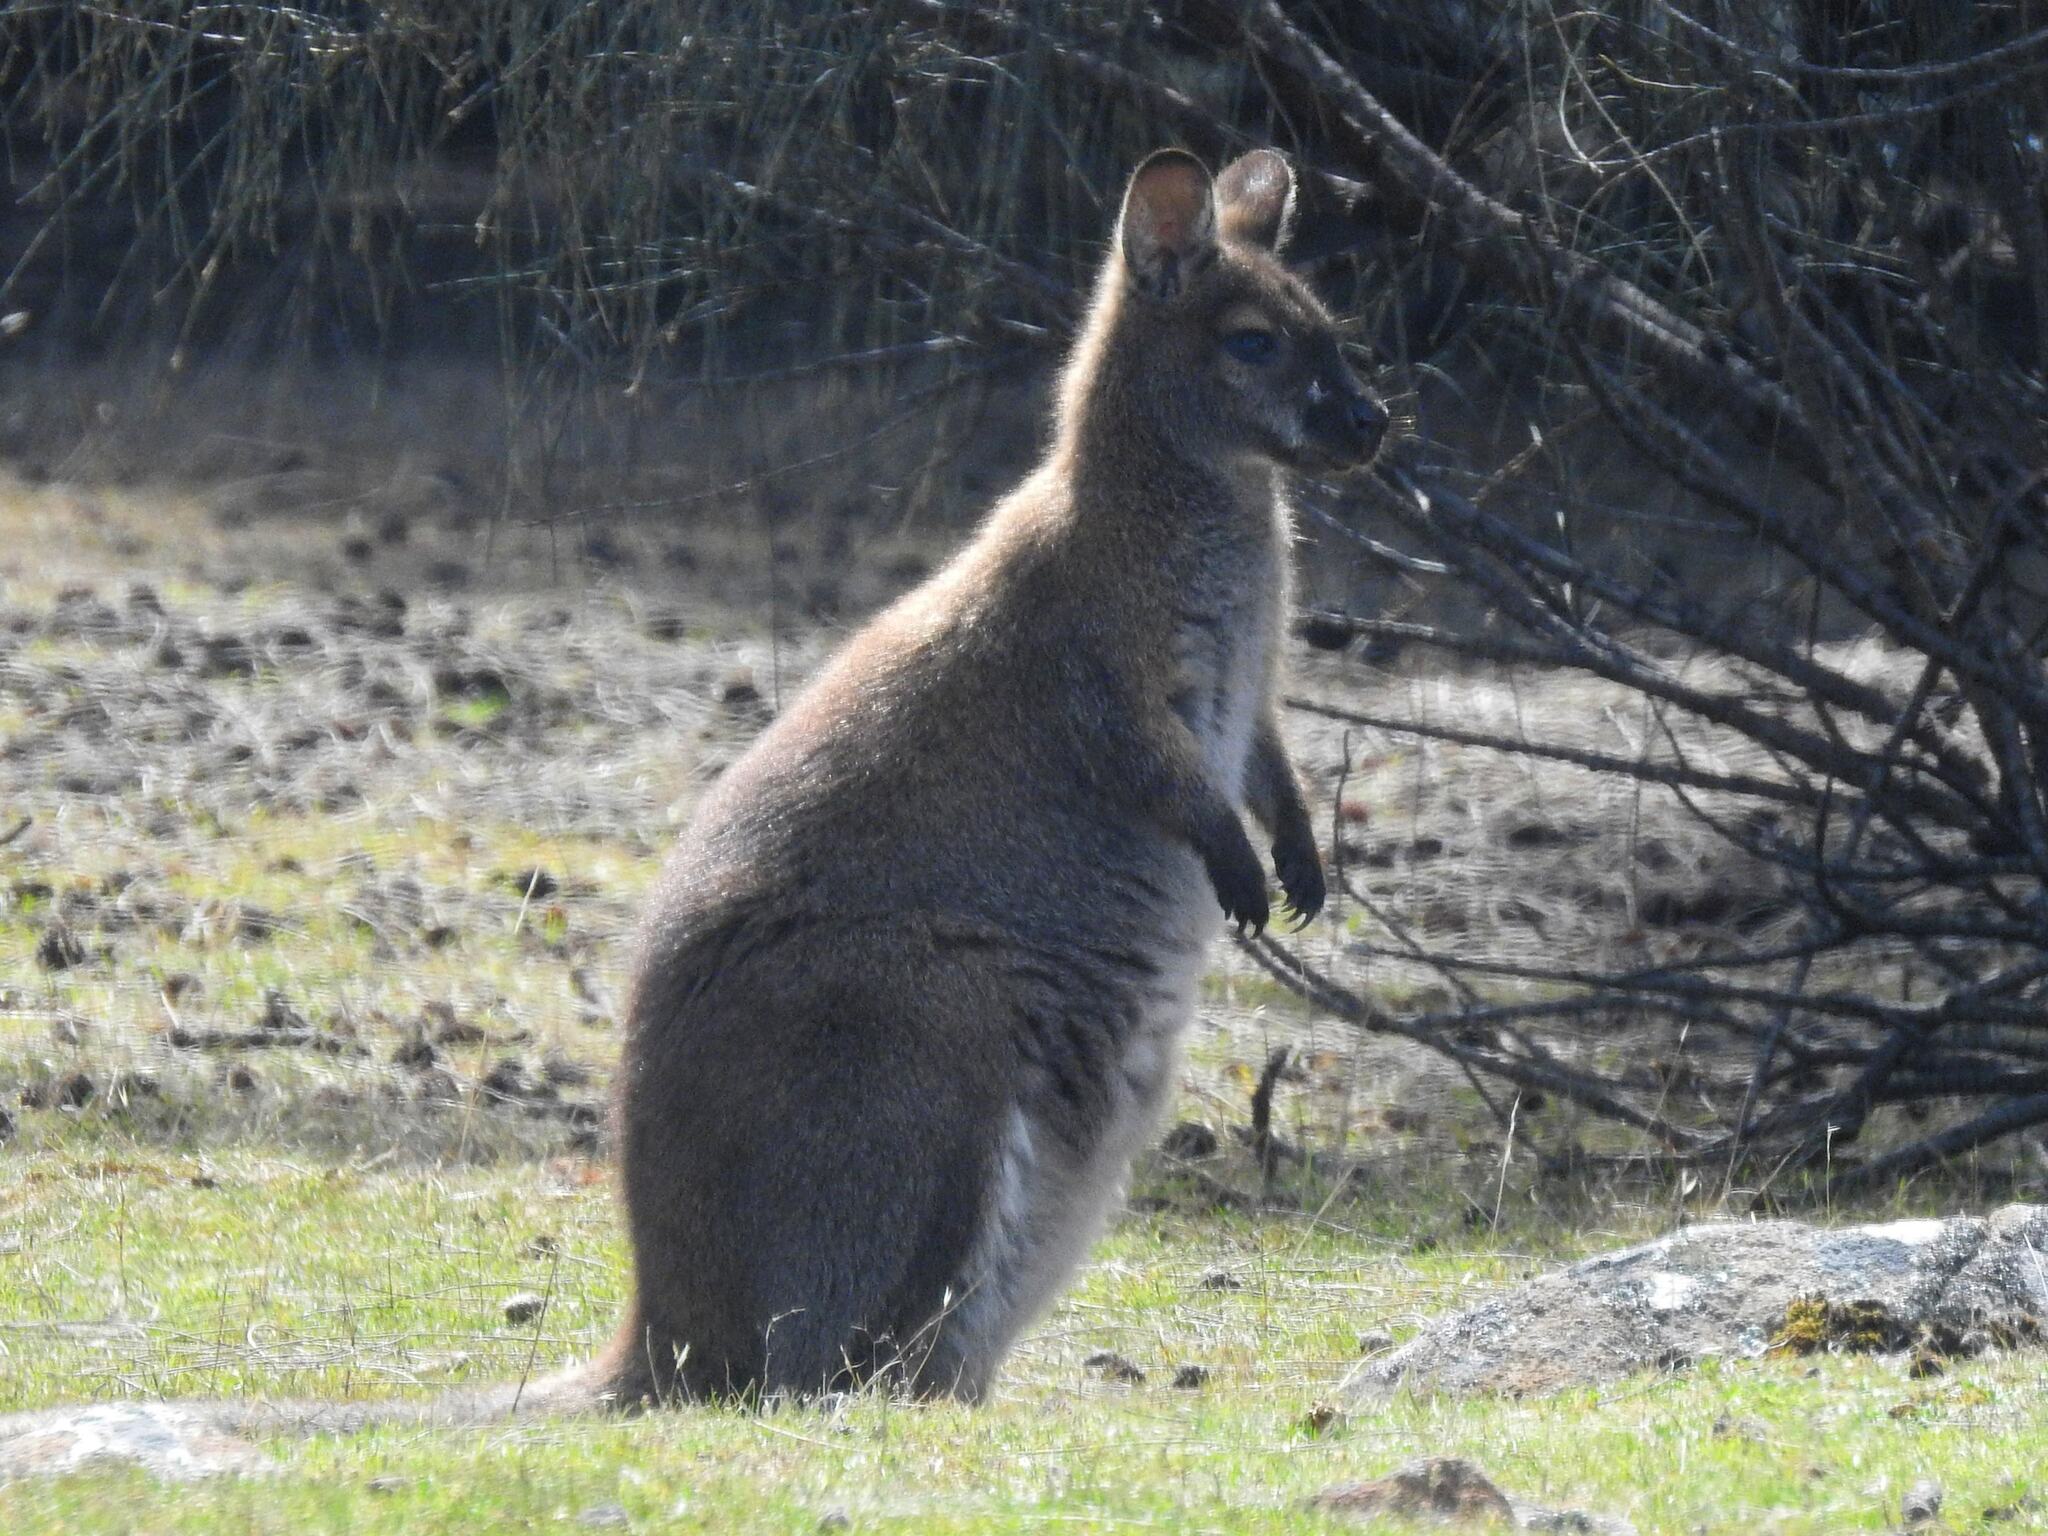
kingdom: Animalia
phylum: Chordata
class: Mammalia
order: Diprotodontia
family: Macropodidae
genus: Notamacropus
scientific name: Notamacropus rufogriseus
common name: Red-necked wallaby
